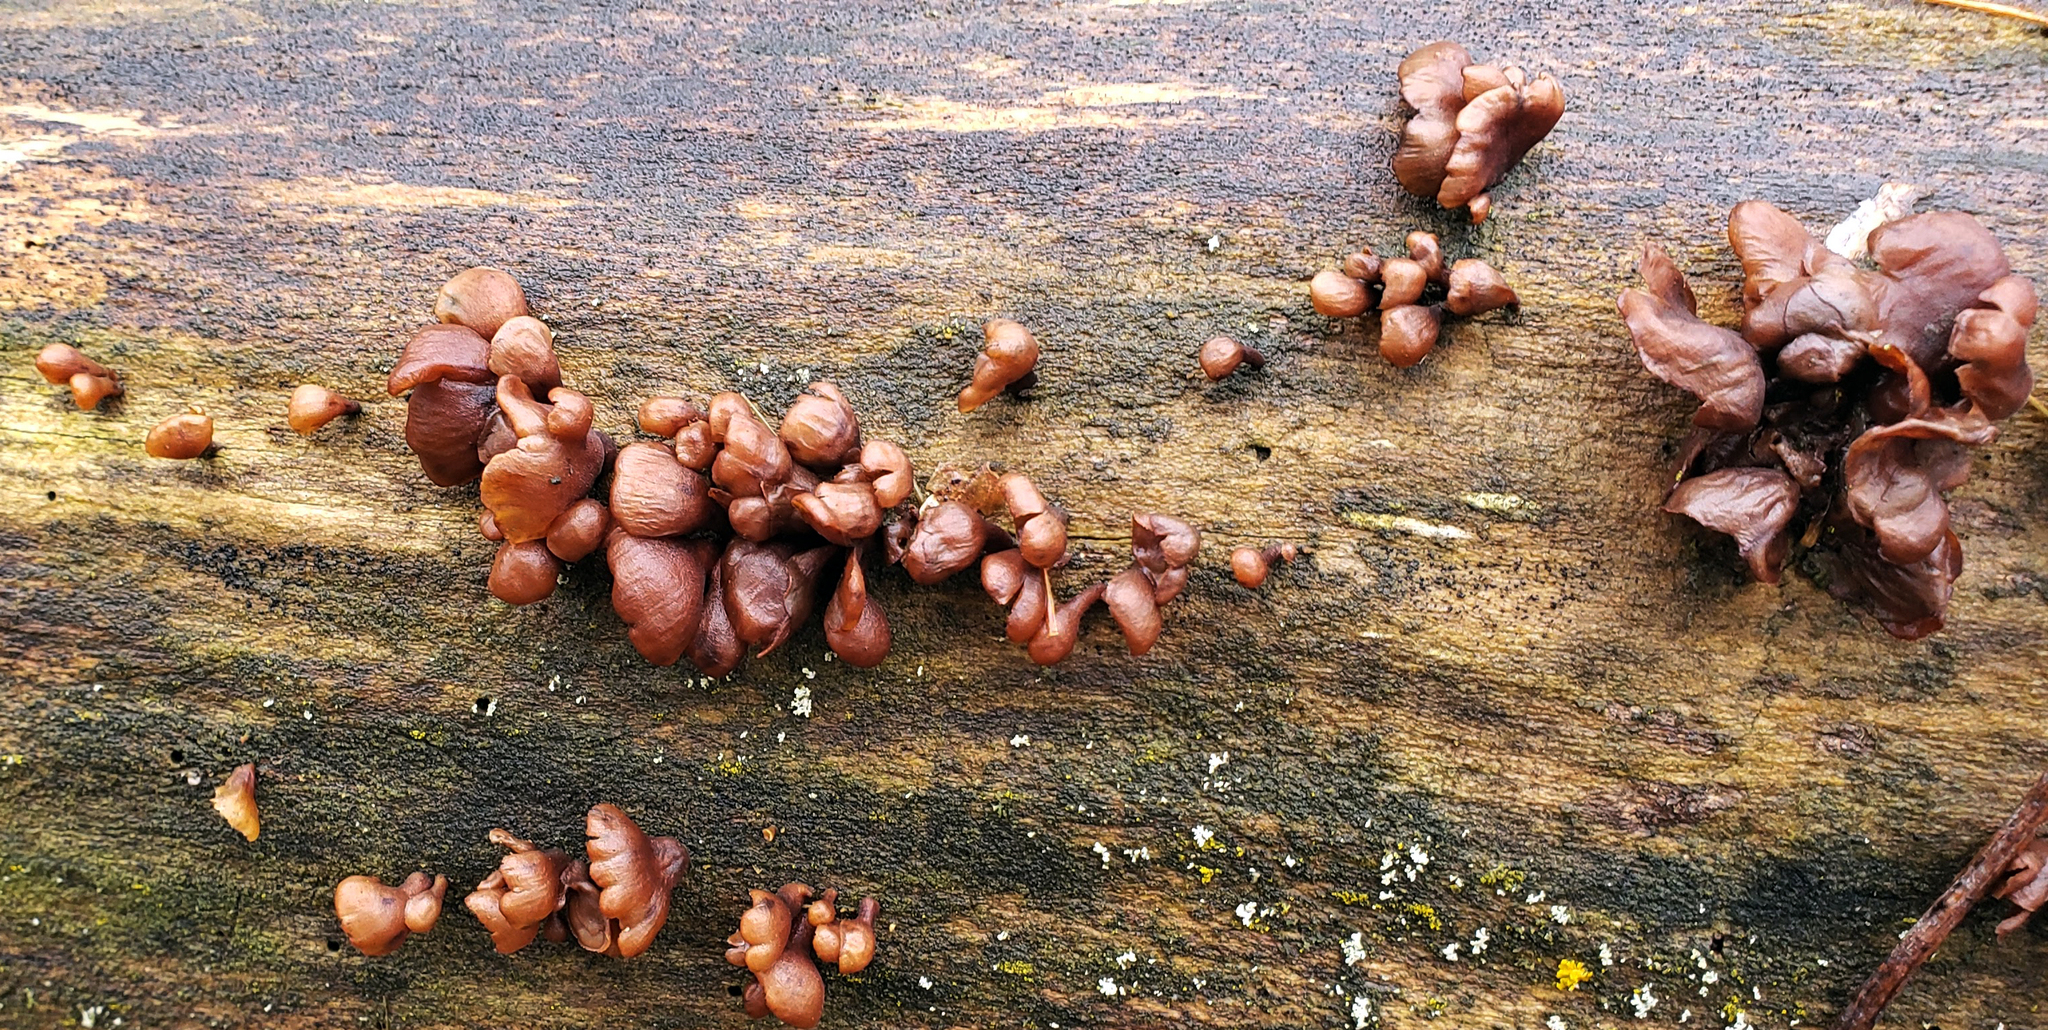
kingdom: Fungi
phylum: Basidiomycota
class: Dacrymycetes
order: Dacrymycetales
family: Dacrymycetaceae
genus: Dacryopinax
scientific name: Dacryopinax elegans
